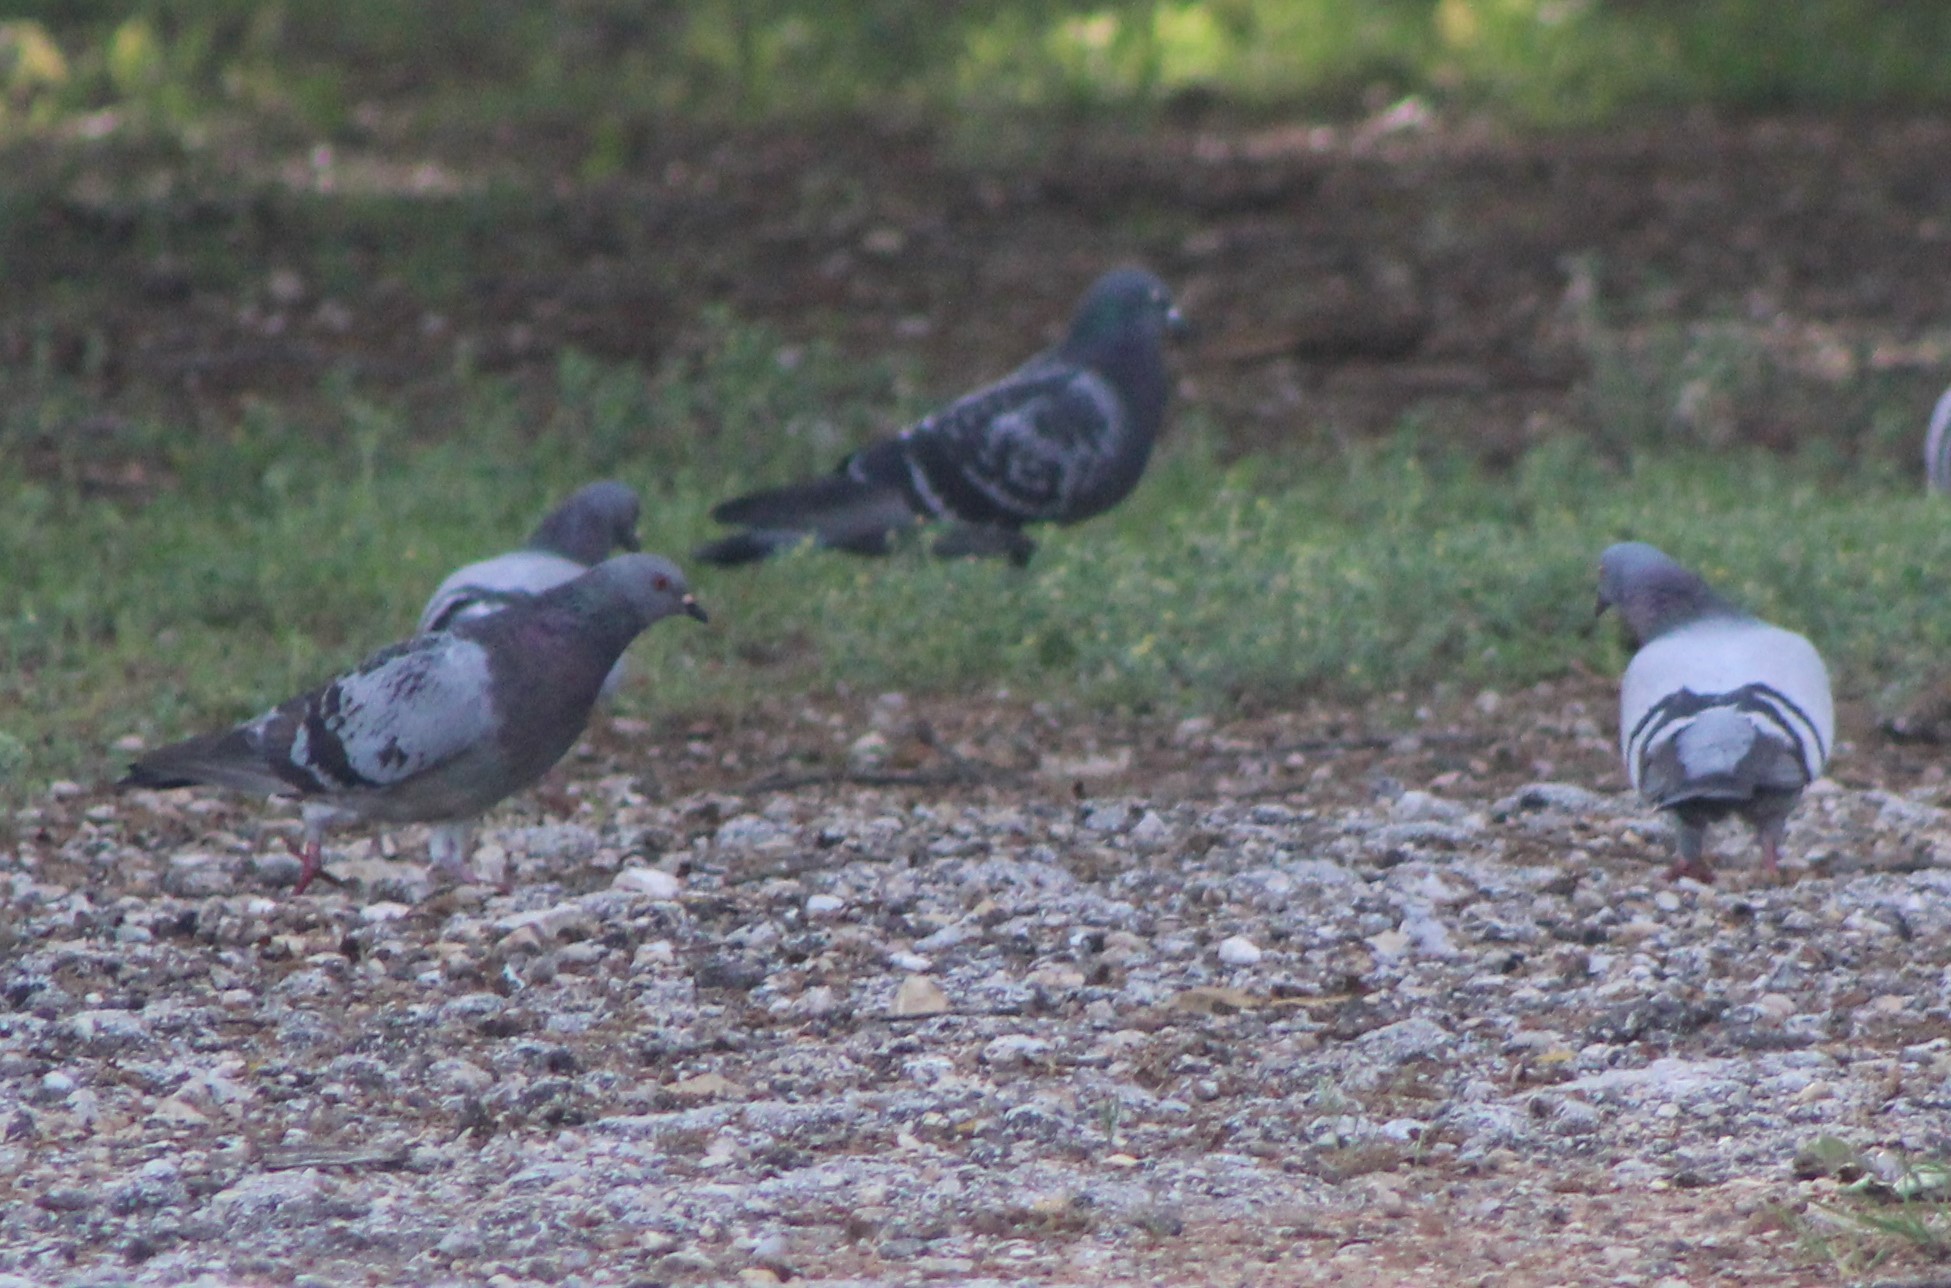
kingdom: Animalia
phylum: Chordata
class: Aves
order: Columbiformes
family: Columbidae
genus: Columba
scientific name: Columba livia
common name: Rock pigeon
